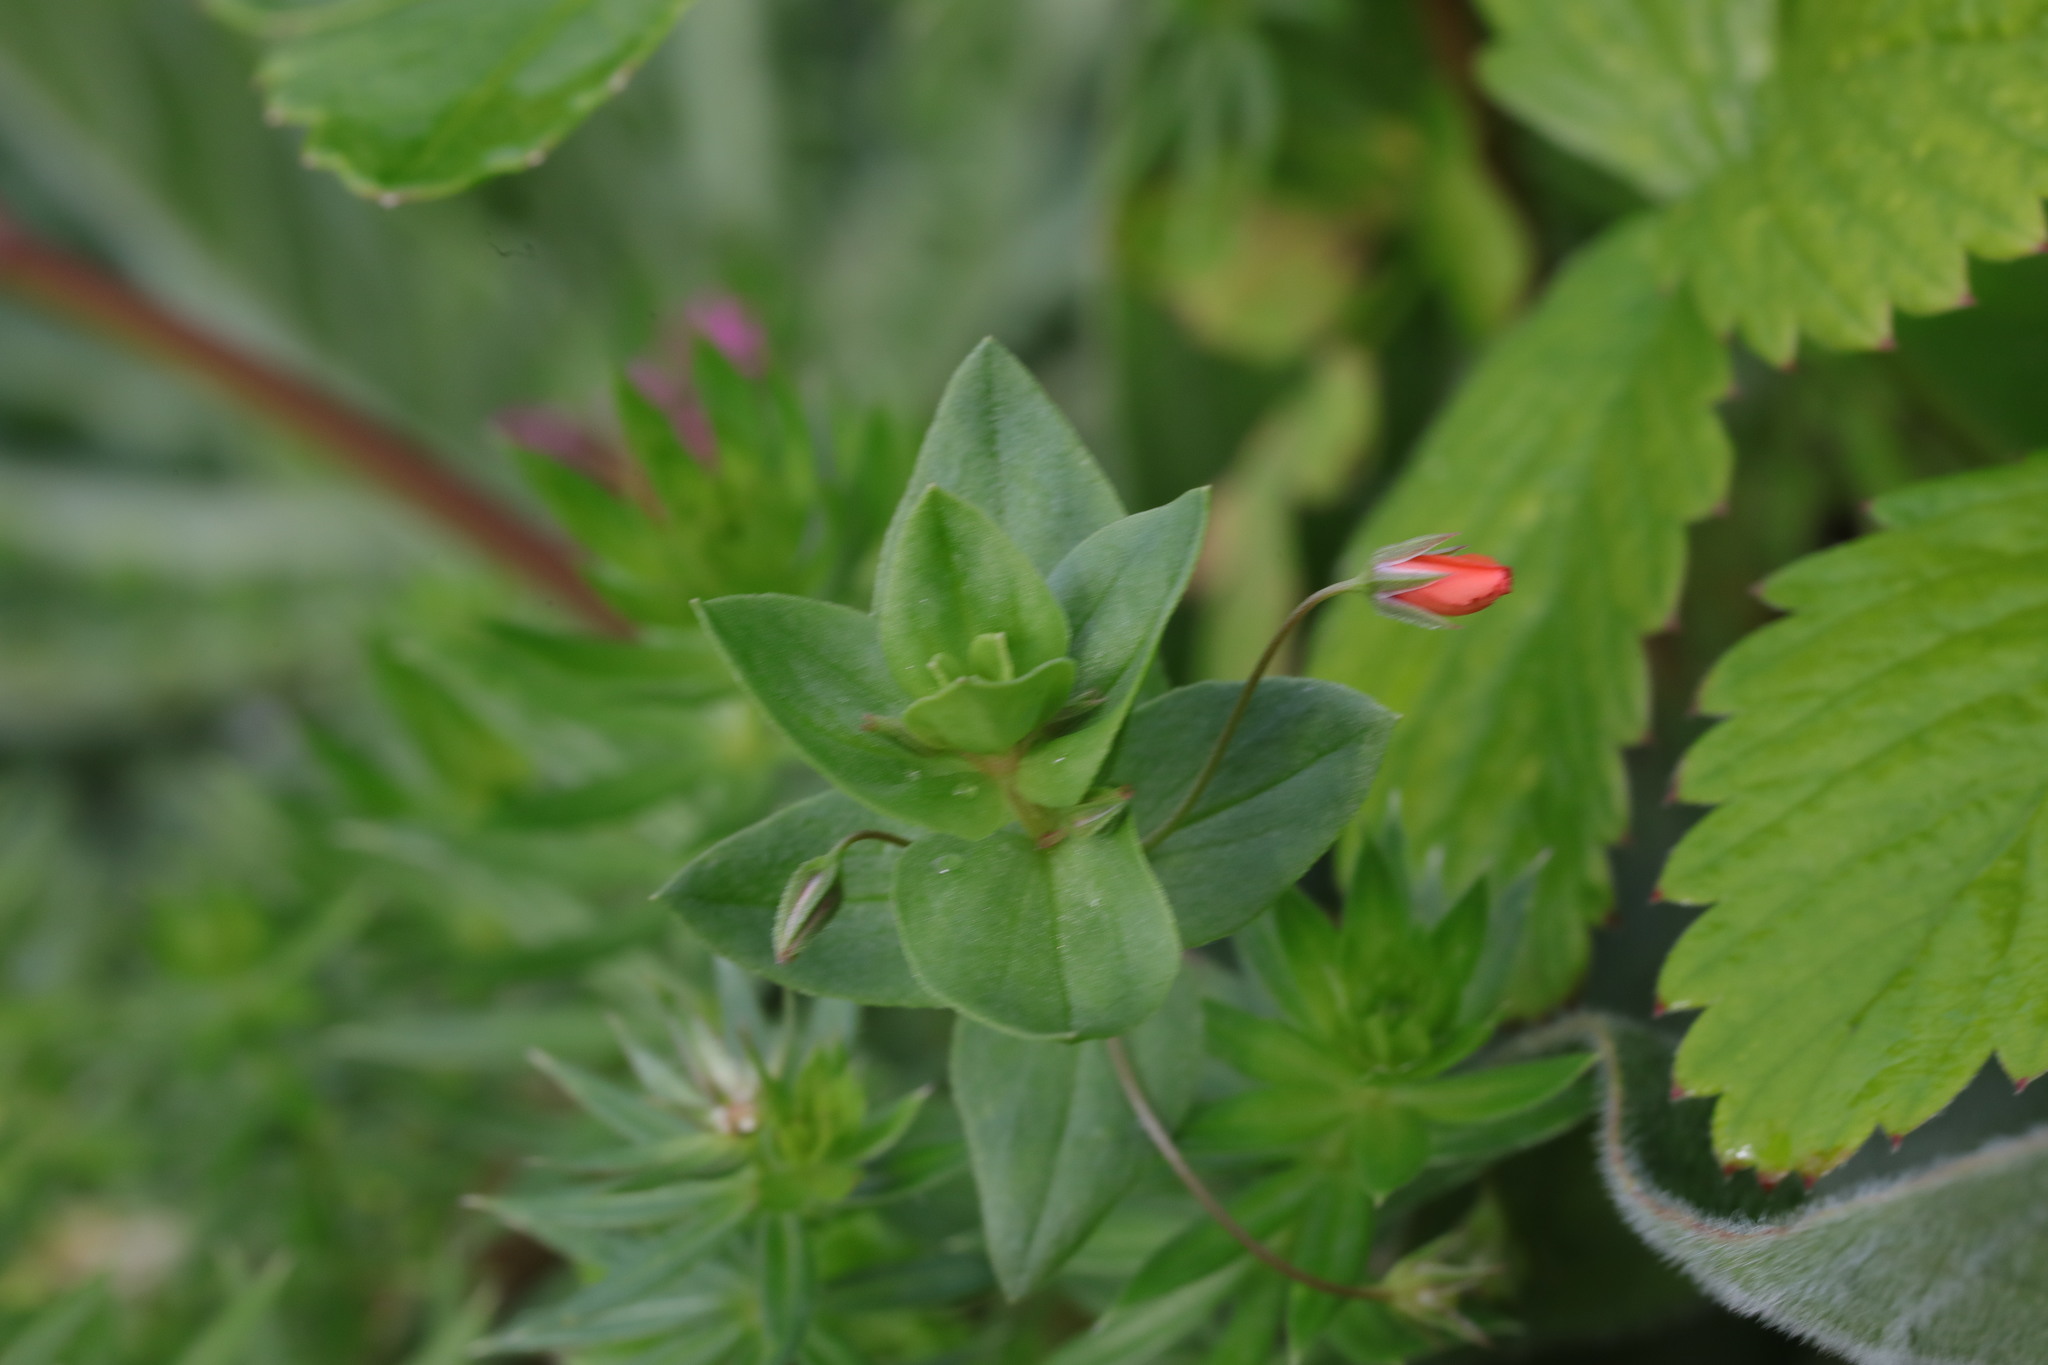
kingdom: Plantae
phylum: Tracheophyta
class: Magnoliopsida
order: Ericales
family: Primulaceae
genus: Lysimachia
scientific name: Lysimachia arvensis
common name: Scarlet pimpernel
